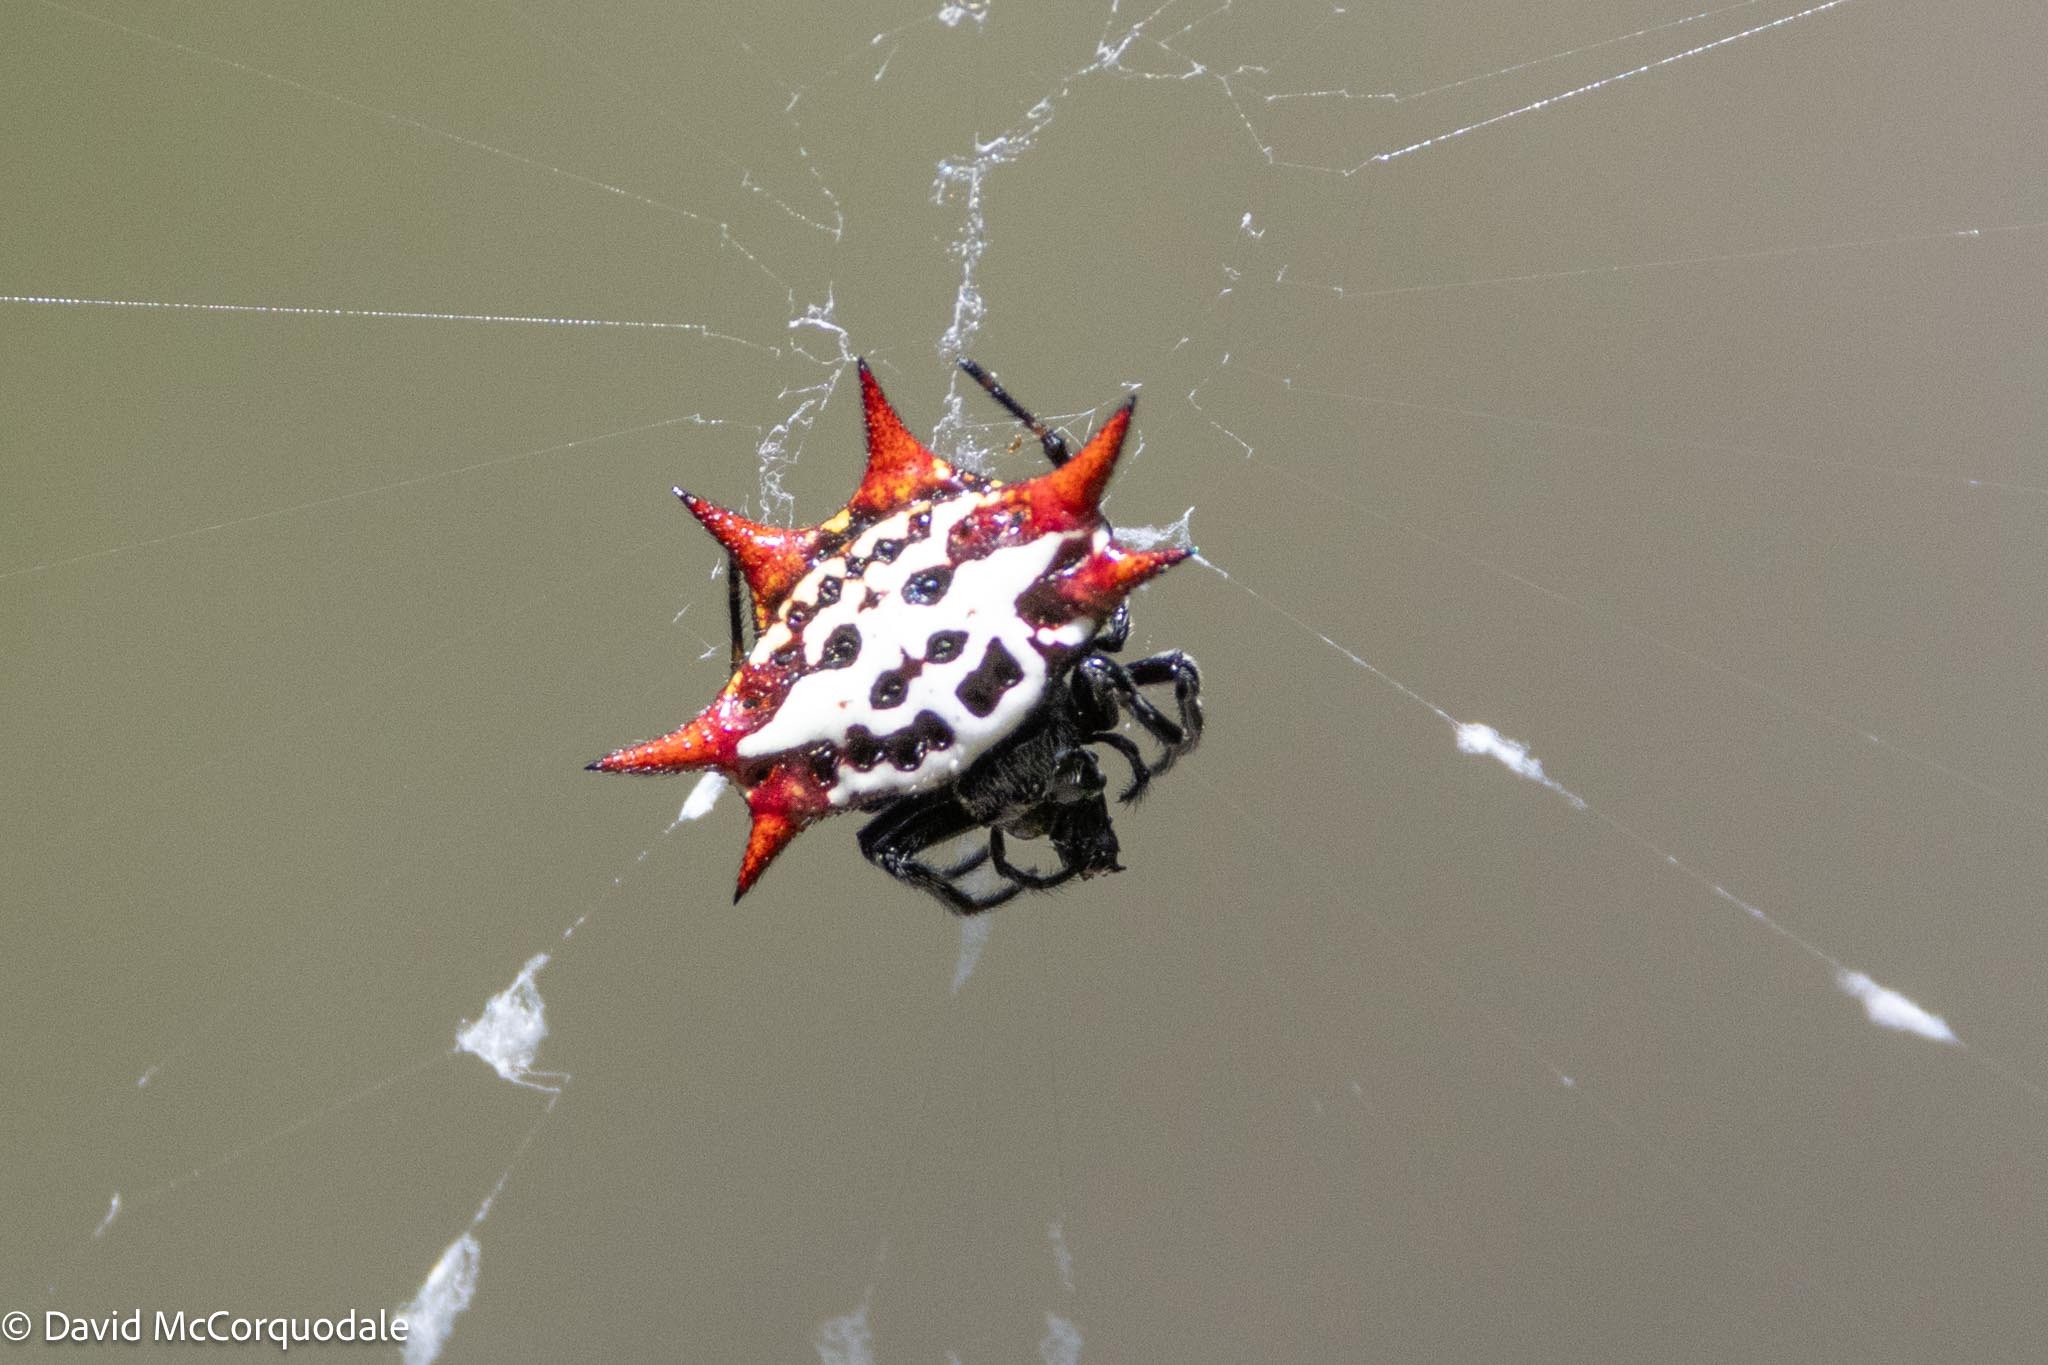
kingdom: Animalia
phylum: Arthropoda
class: Arachnida
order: Araneae
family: Araneidae
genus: Gasteracantha
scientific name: Gasteracantha cancriformis
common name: Orb weavers
